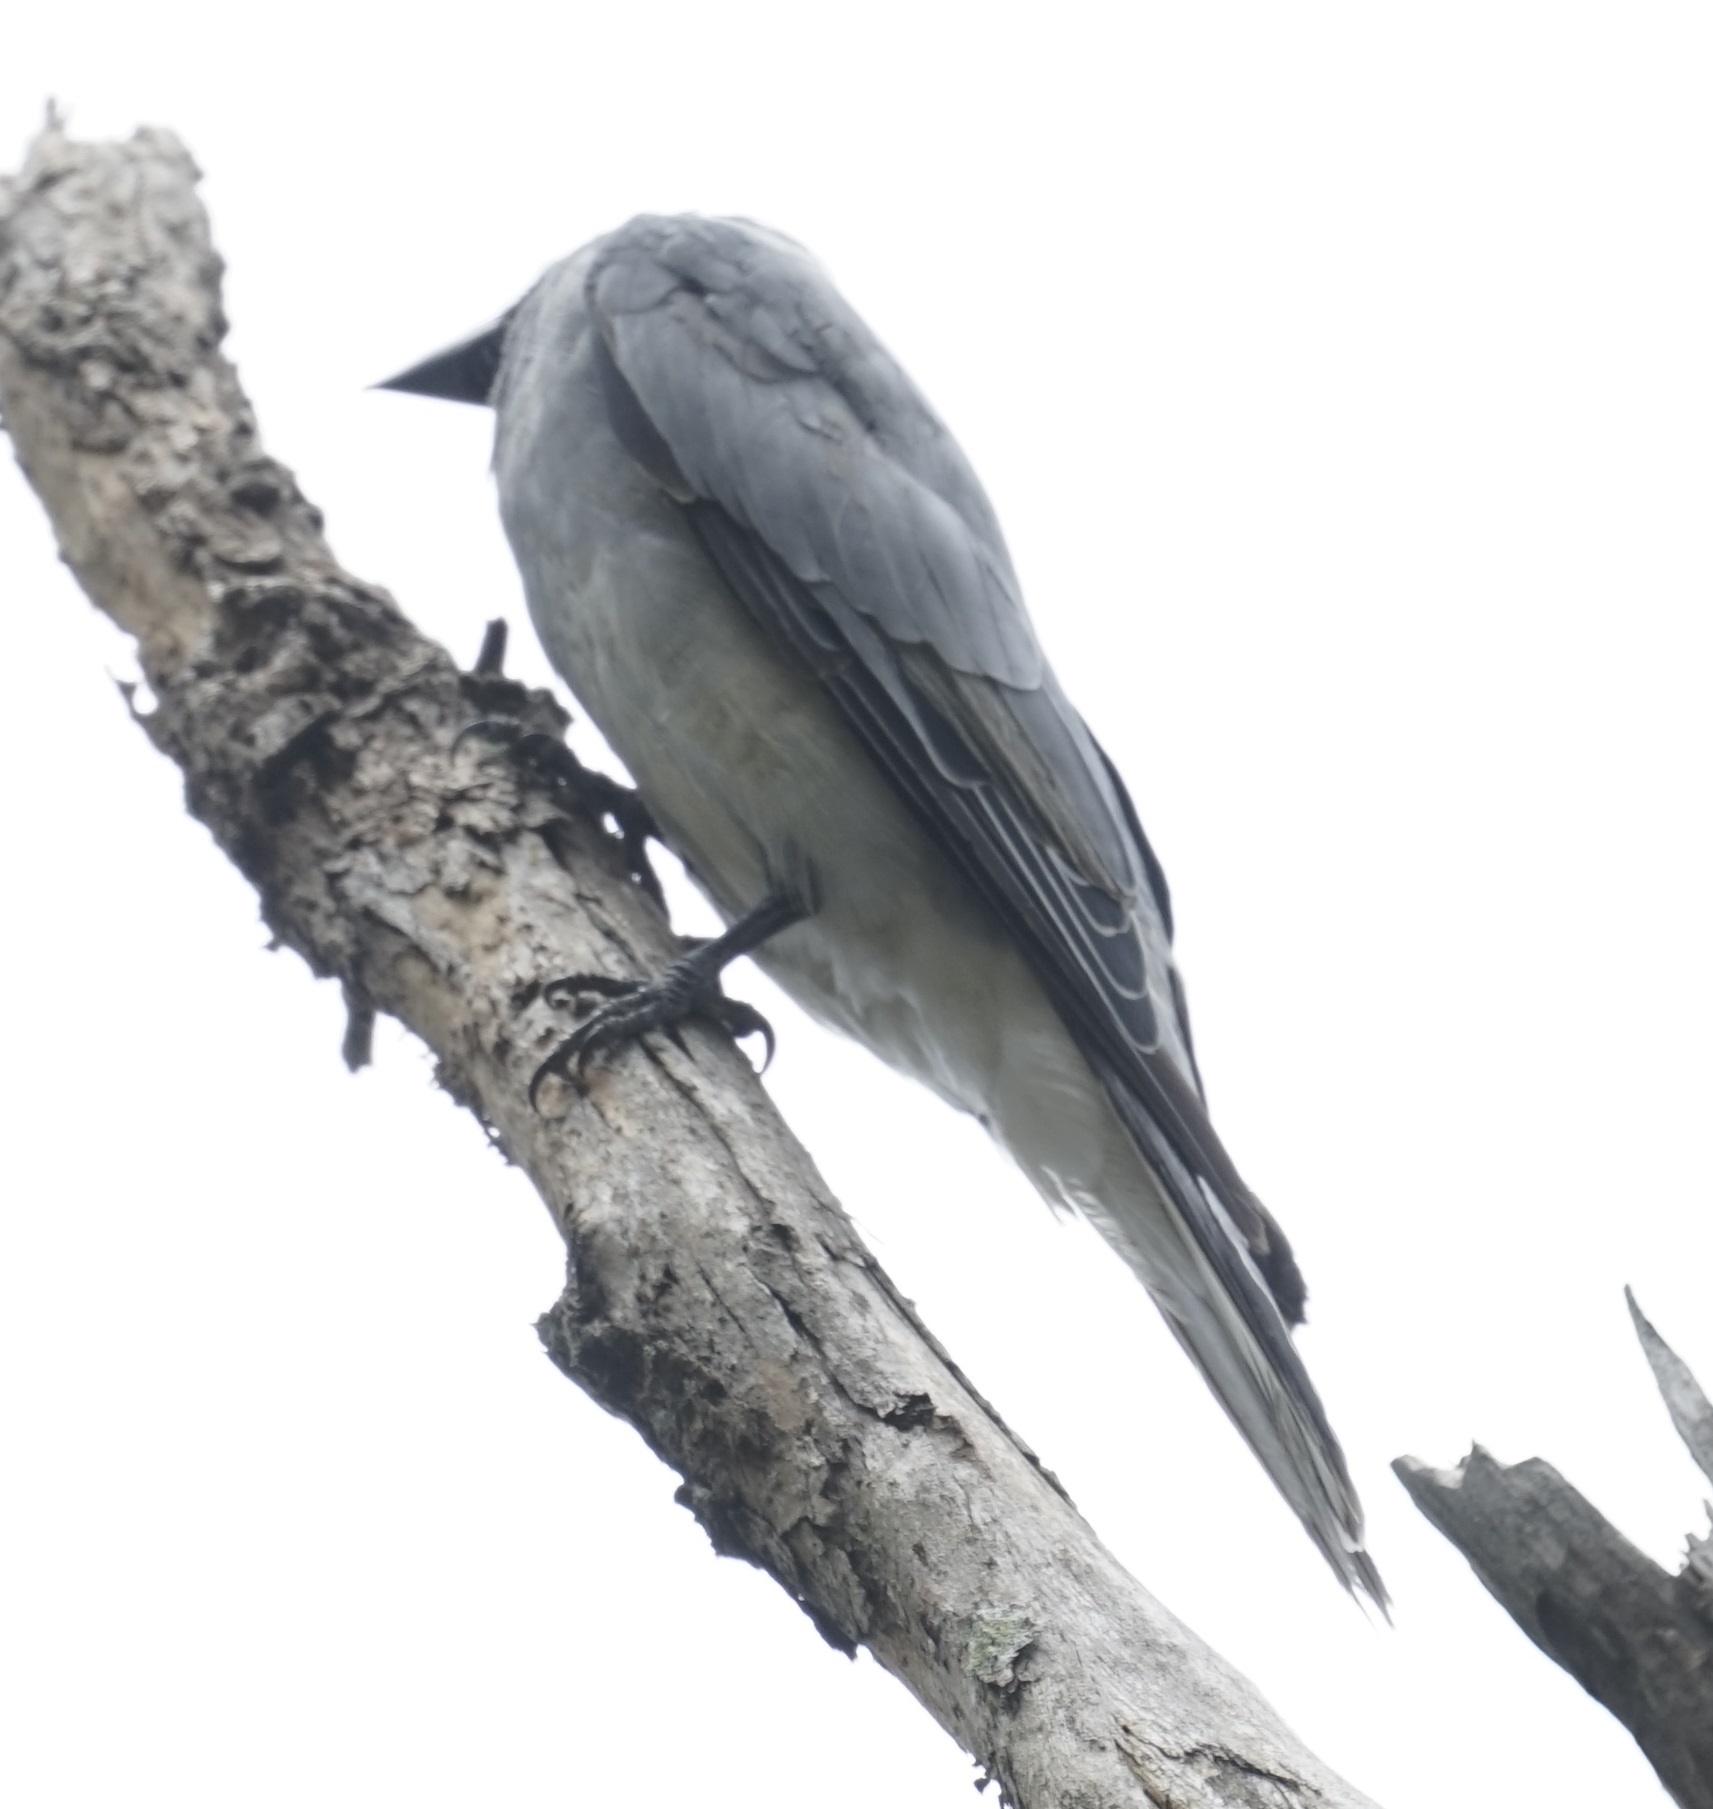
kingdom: Animalia
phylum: Chordata
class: Aves
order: Passeriformes
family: Campephagidae
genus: Coracina
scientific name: Coracina novaehollandiae
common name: Black-faced cuckooshrike
